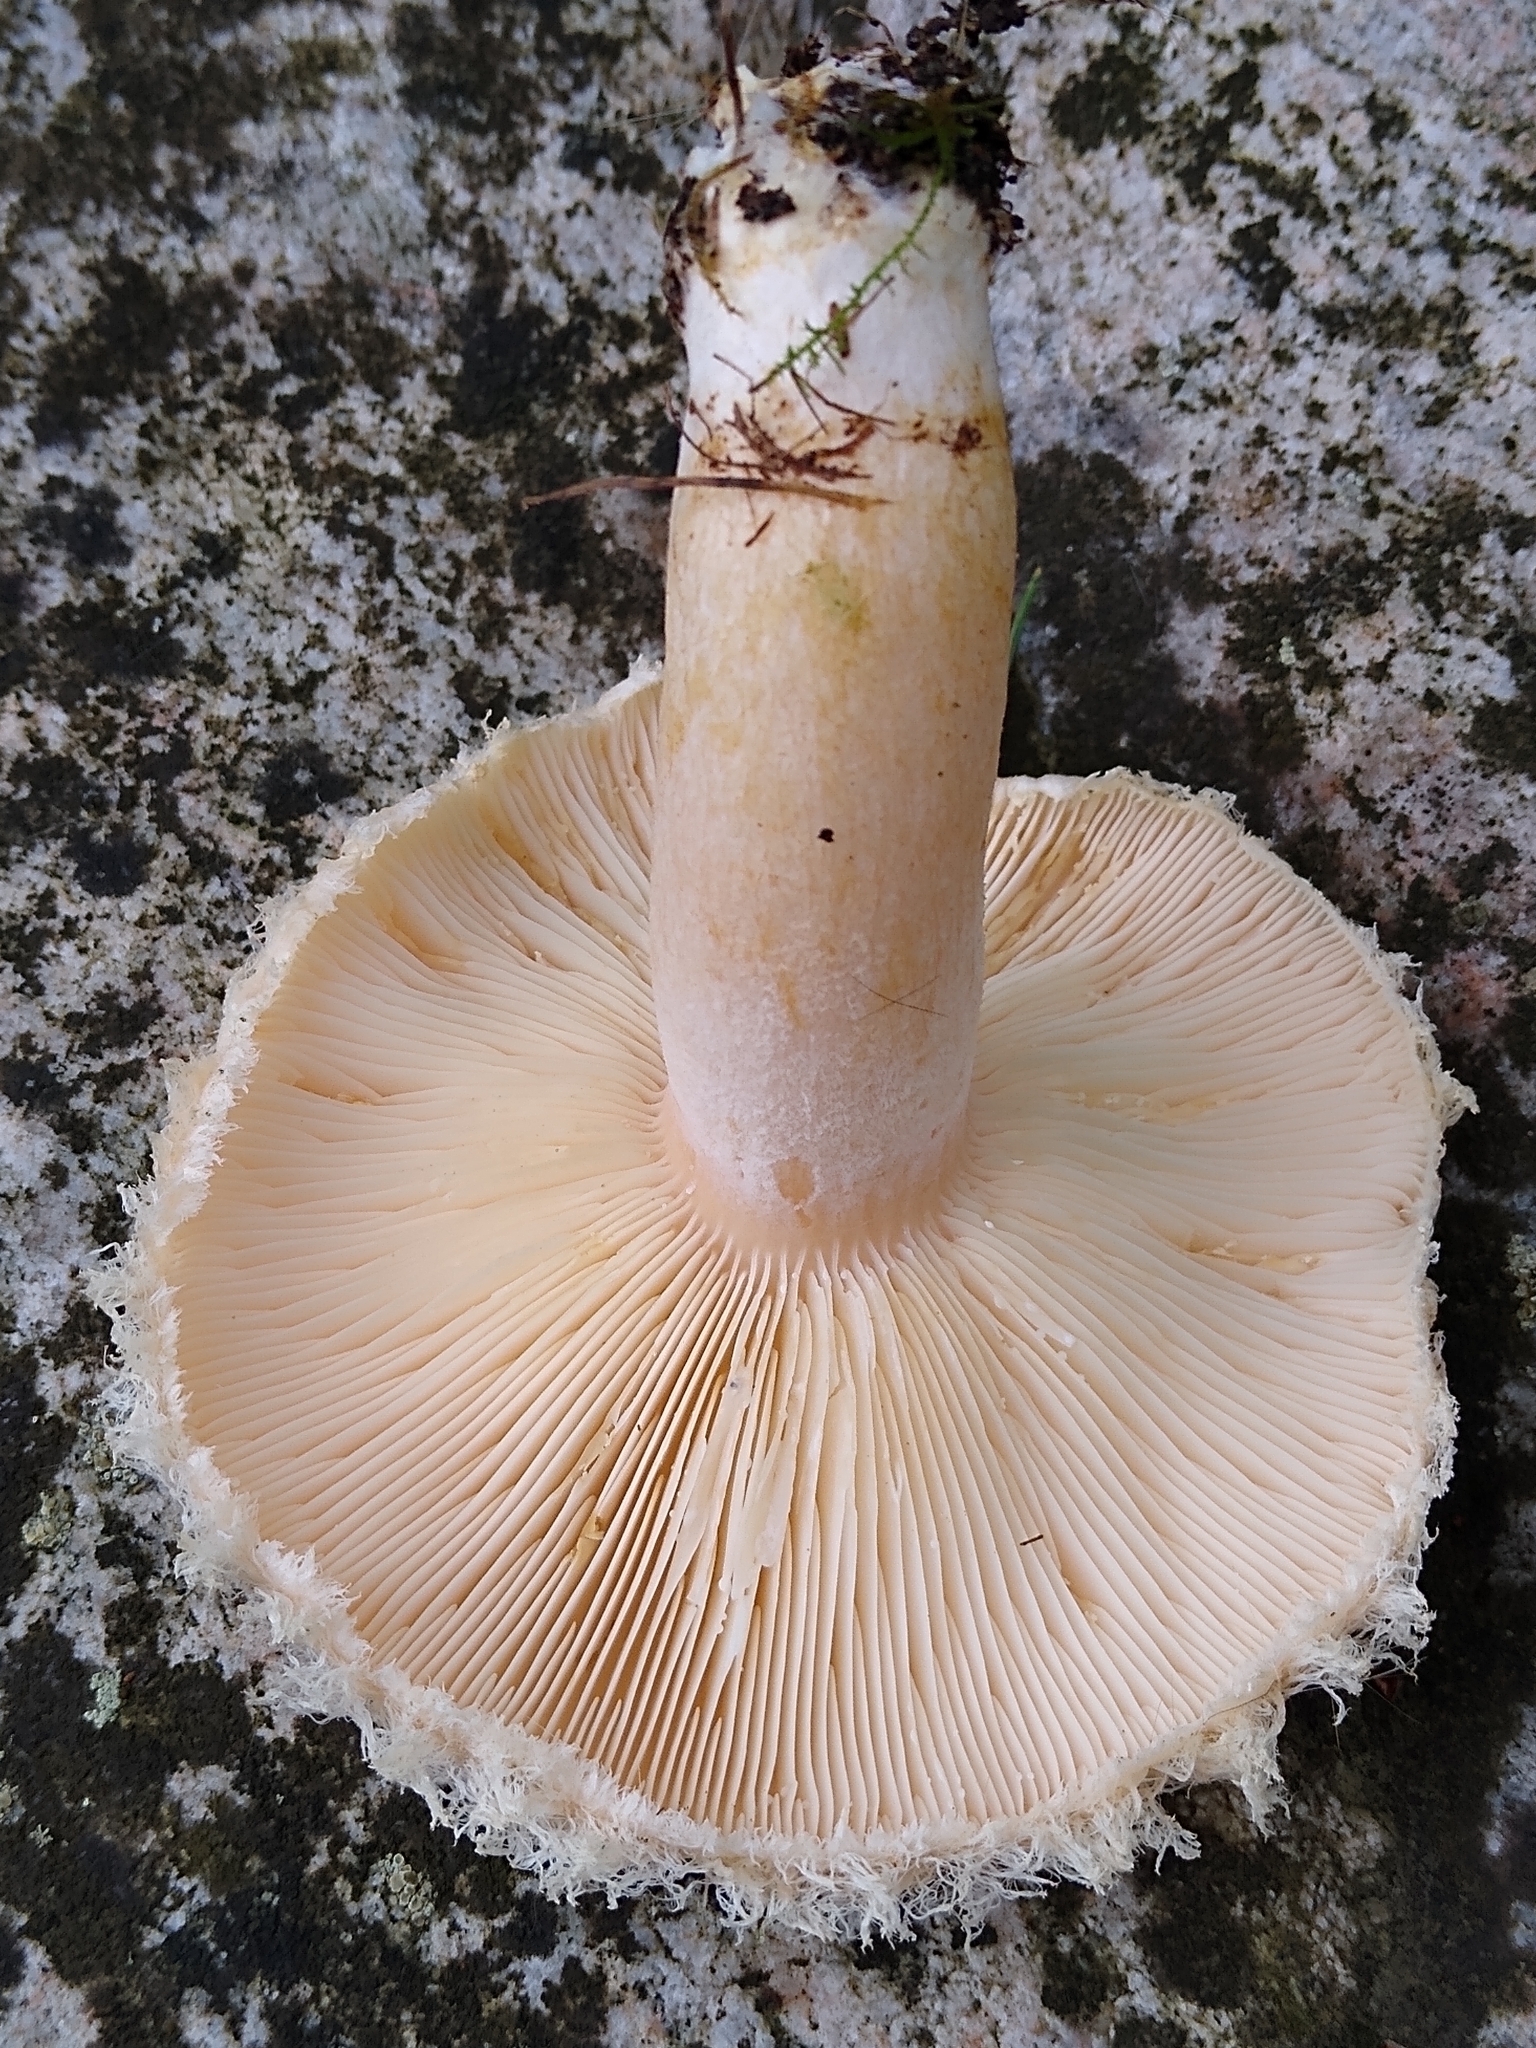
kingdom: Fungi
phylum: Basidiomycota
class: Agaricomycetes
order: Russulales
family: Russulaceae
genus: Lactarius
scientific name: Lactarius pubescens
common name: Bearded milkcap
